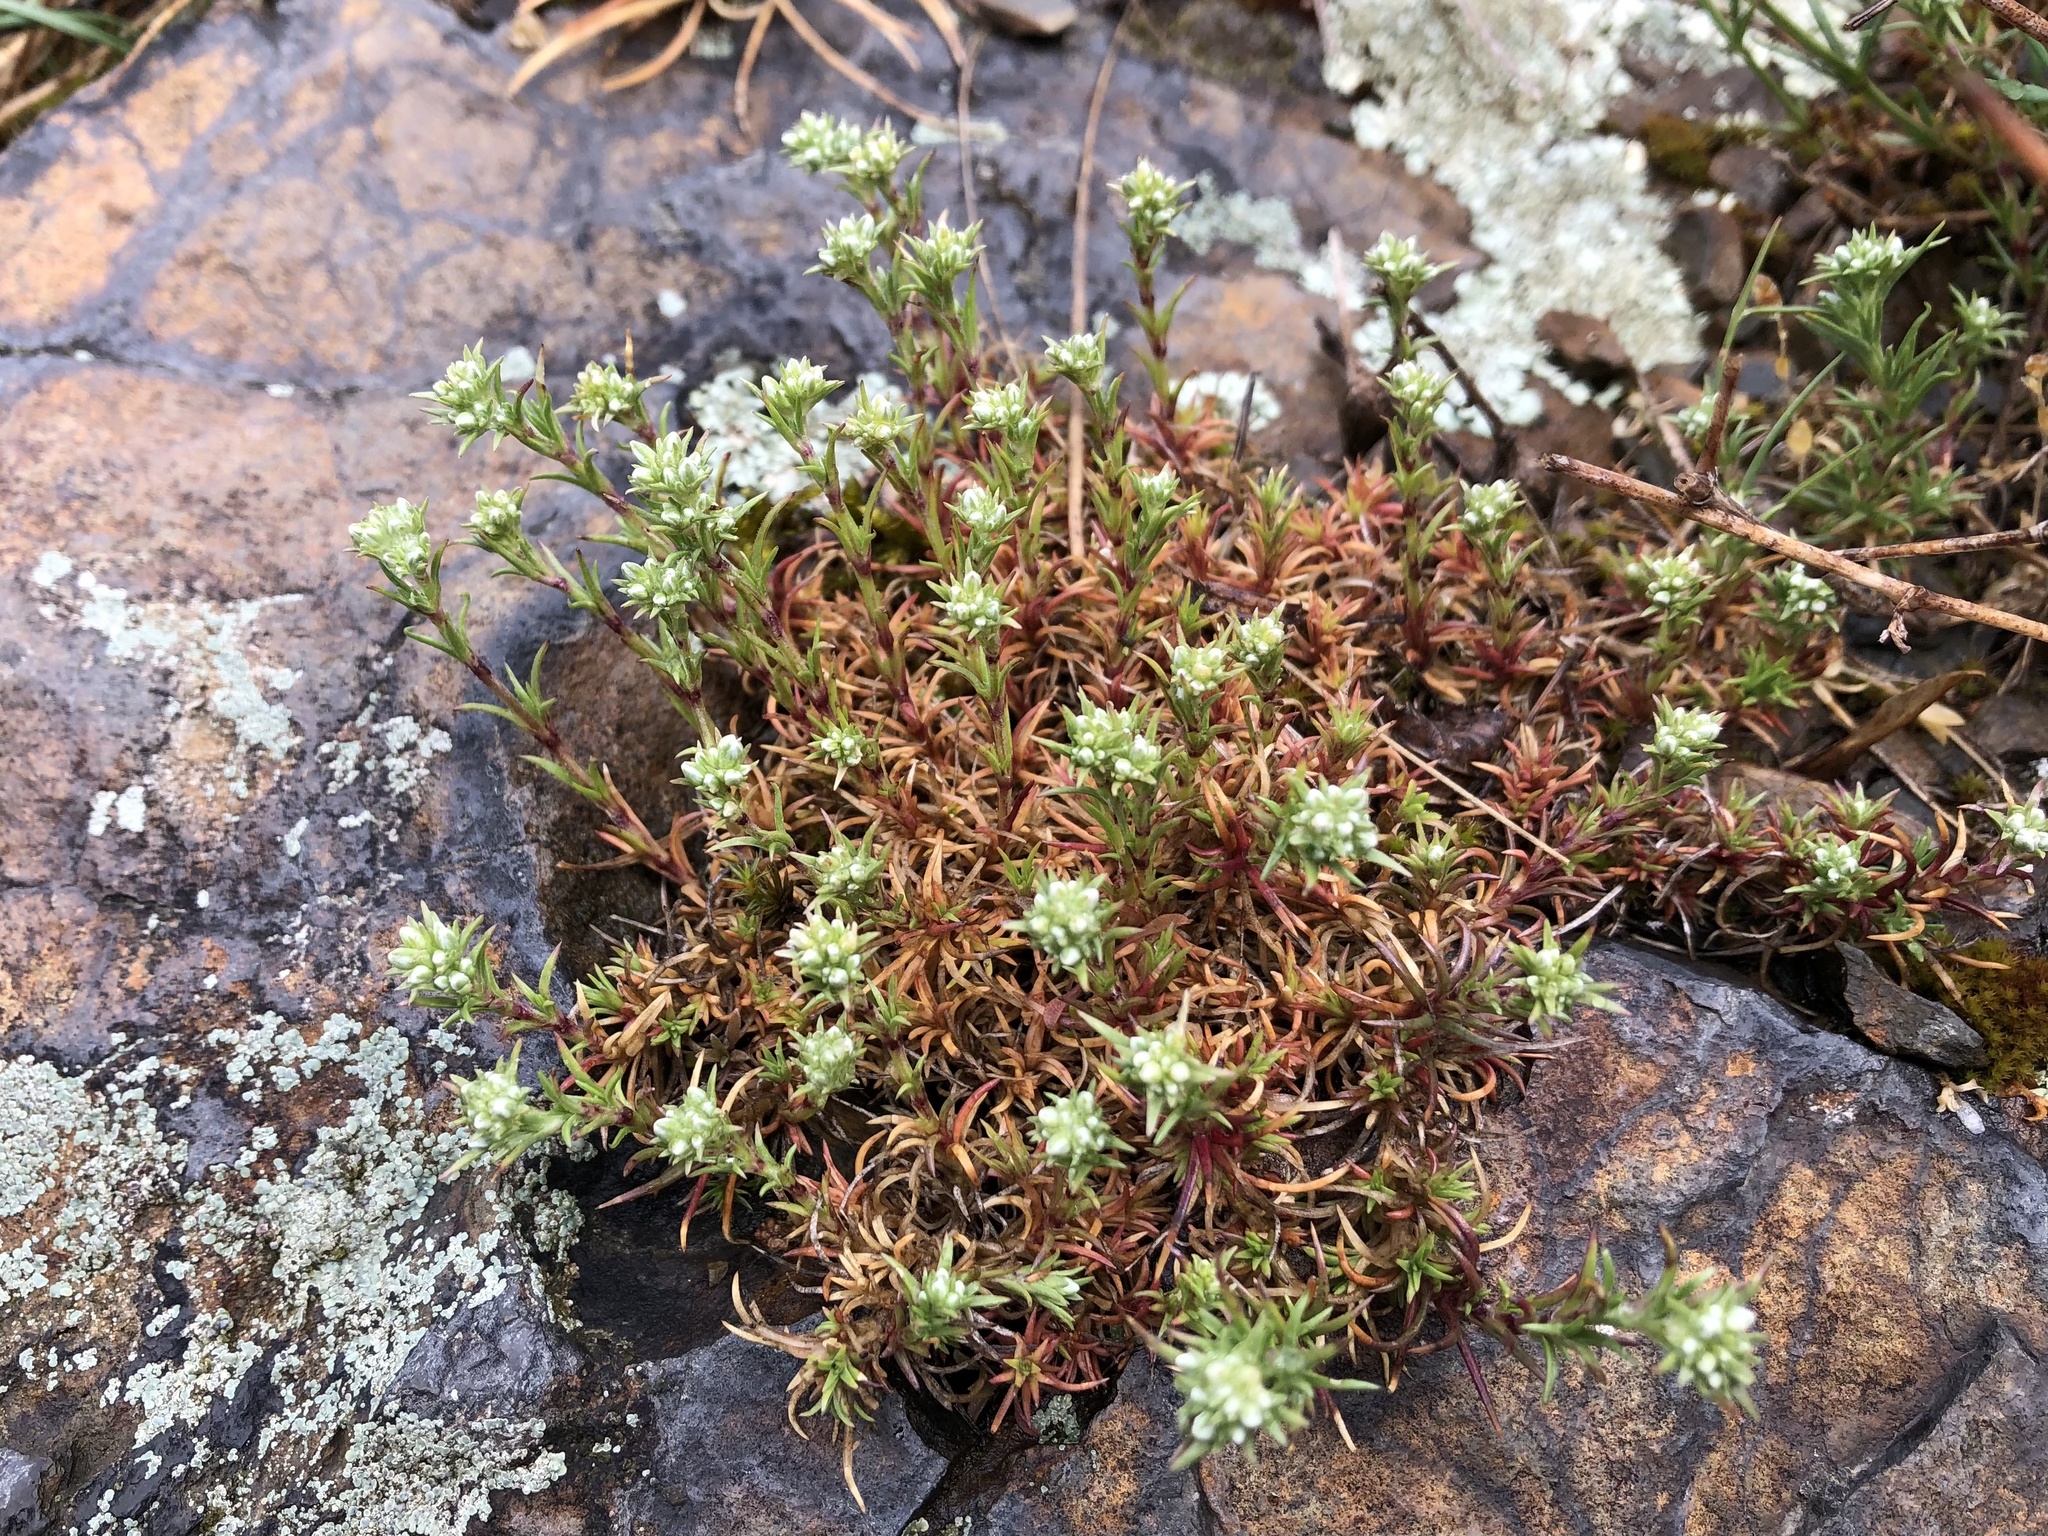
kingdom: Plantae
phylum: Tracheophyta
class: Magnoliopsida
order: Caryophyllales
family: Caryophyllaceae
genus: Scleranthus
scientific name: Scleranthus perennis
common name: Perennial knawel
